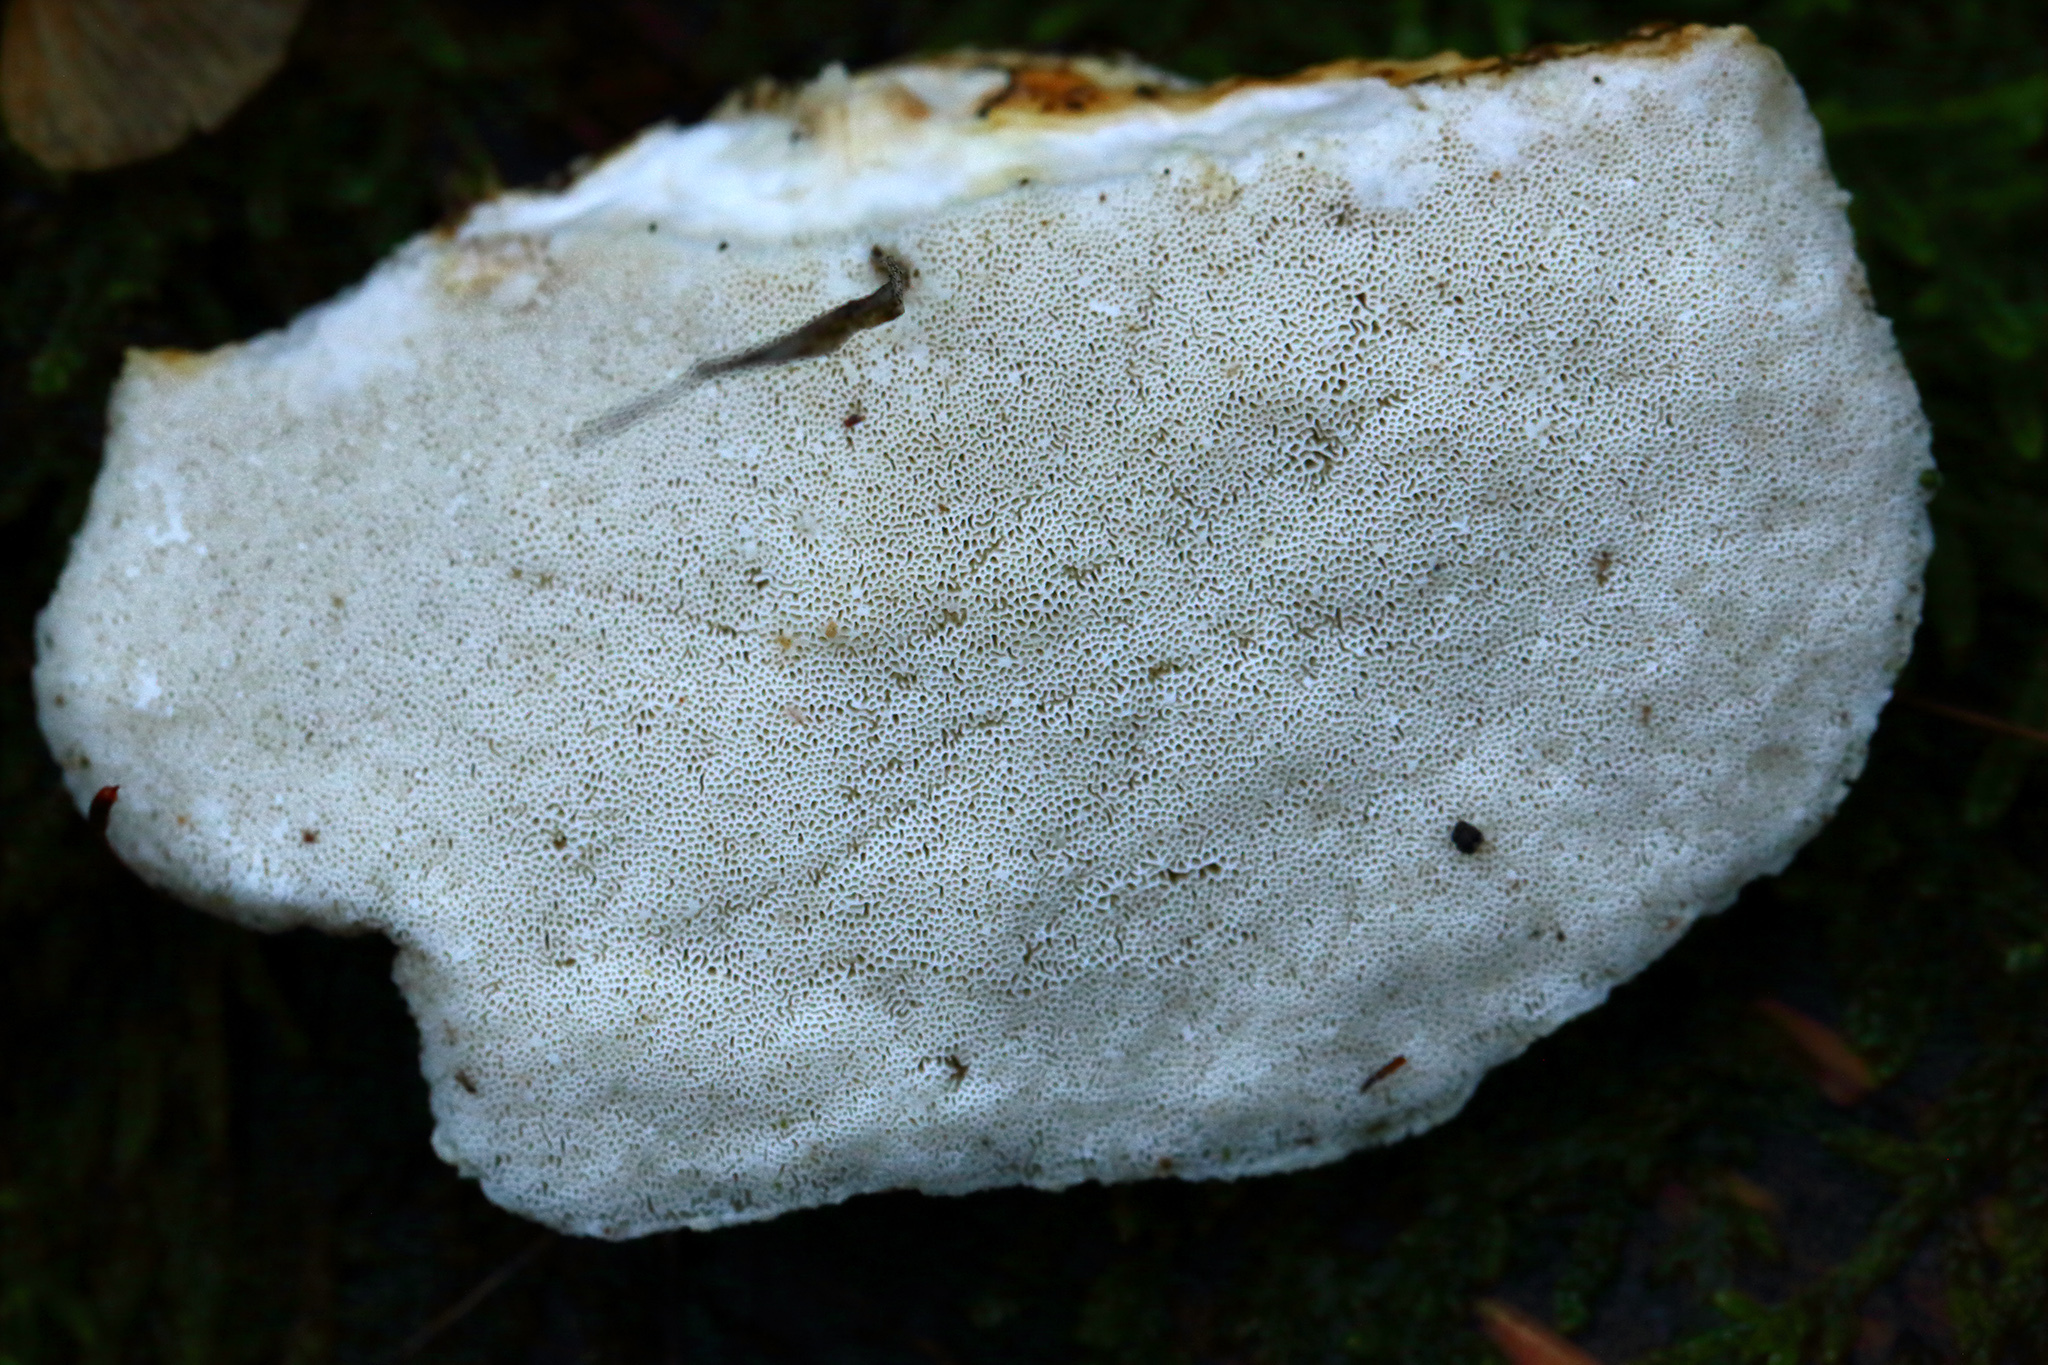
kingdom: Fungi
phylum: Basidiomycota
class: Agaricomycetes
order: Polyporales
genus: Amaropostia
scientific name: Amaropostia stiptica
